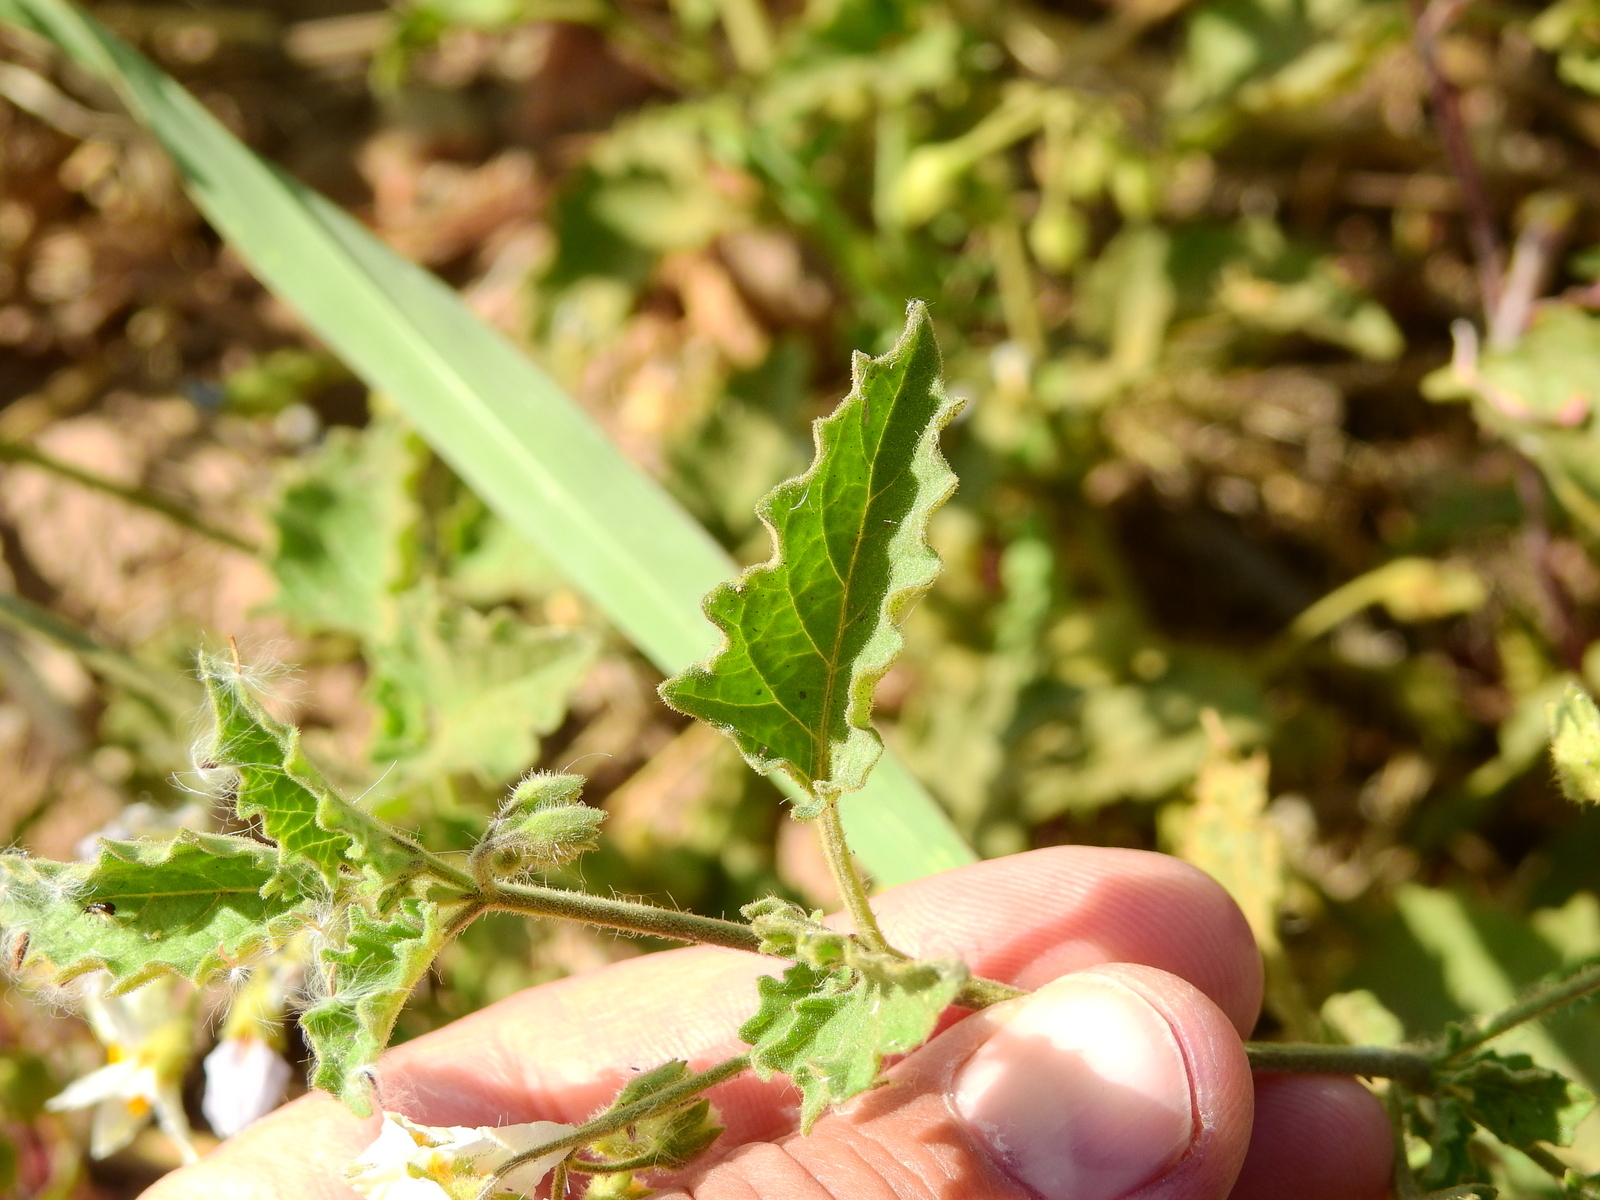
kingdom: Plantae
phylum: Tracheophyta
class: Magnoliopsida
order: Solanales
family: Solanaceae
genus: Solanum
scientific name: Solanum tweedianum
